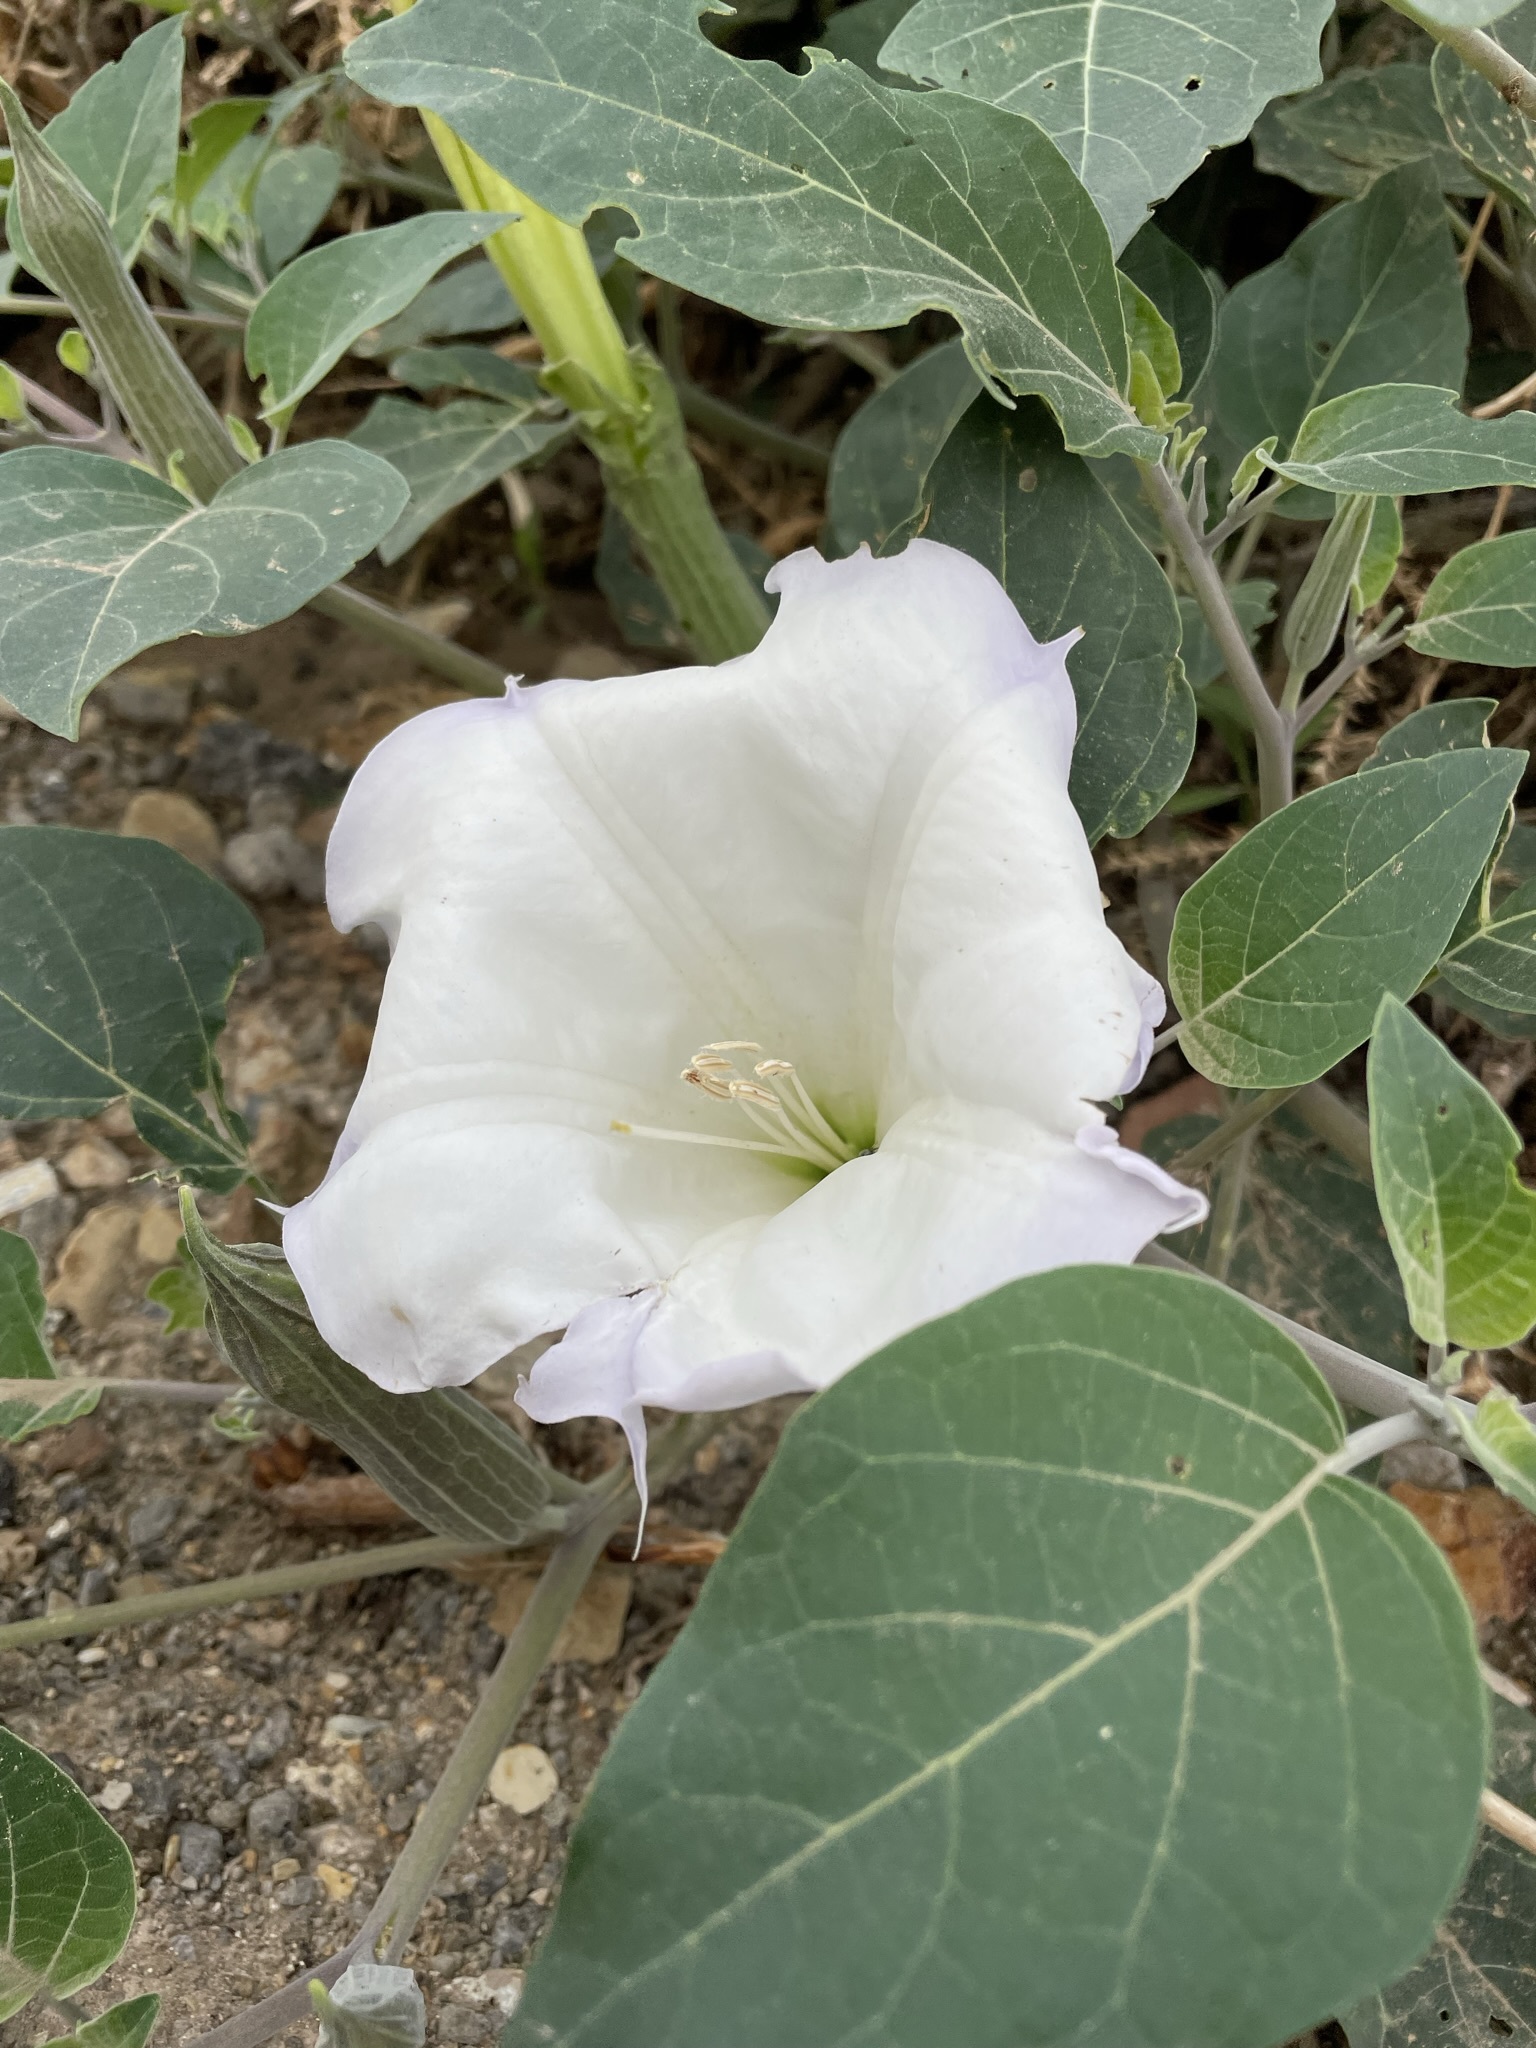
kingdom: Plantae
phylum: Tracheophyta
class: Magnoliopsida
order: Solanales
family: Solanaceae
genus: Datura
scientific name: Datura wrightii
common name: Sacred thorn-apple
